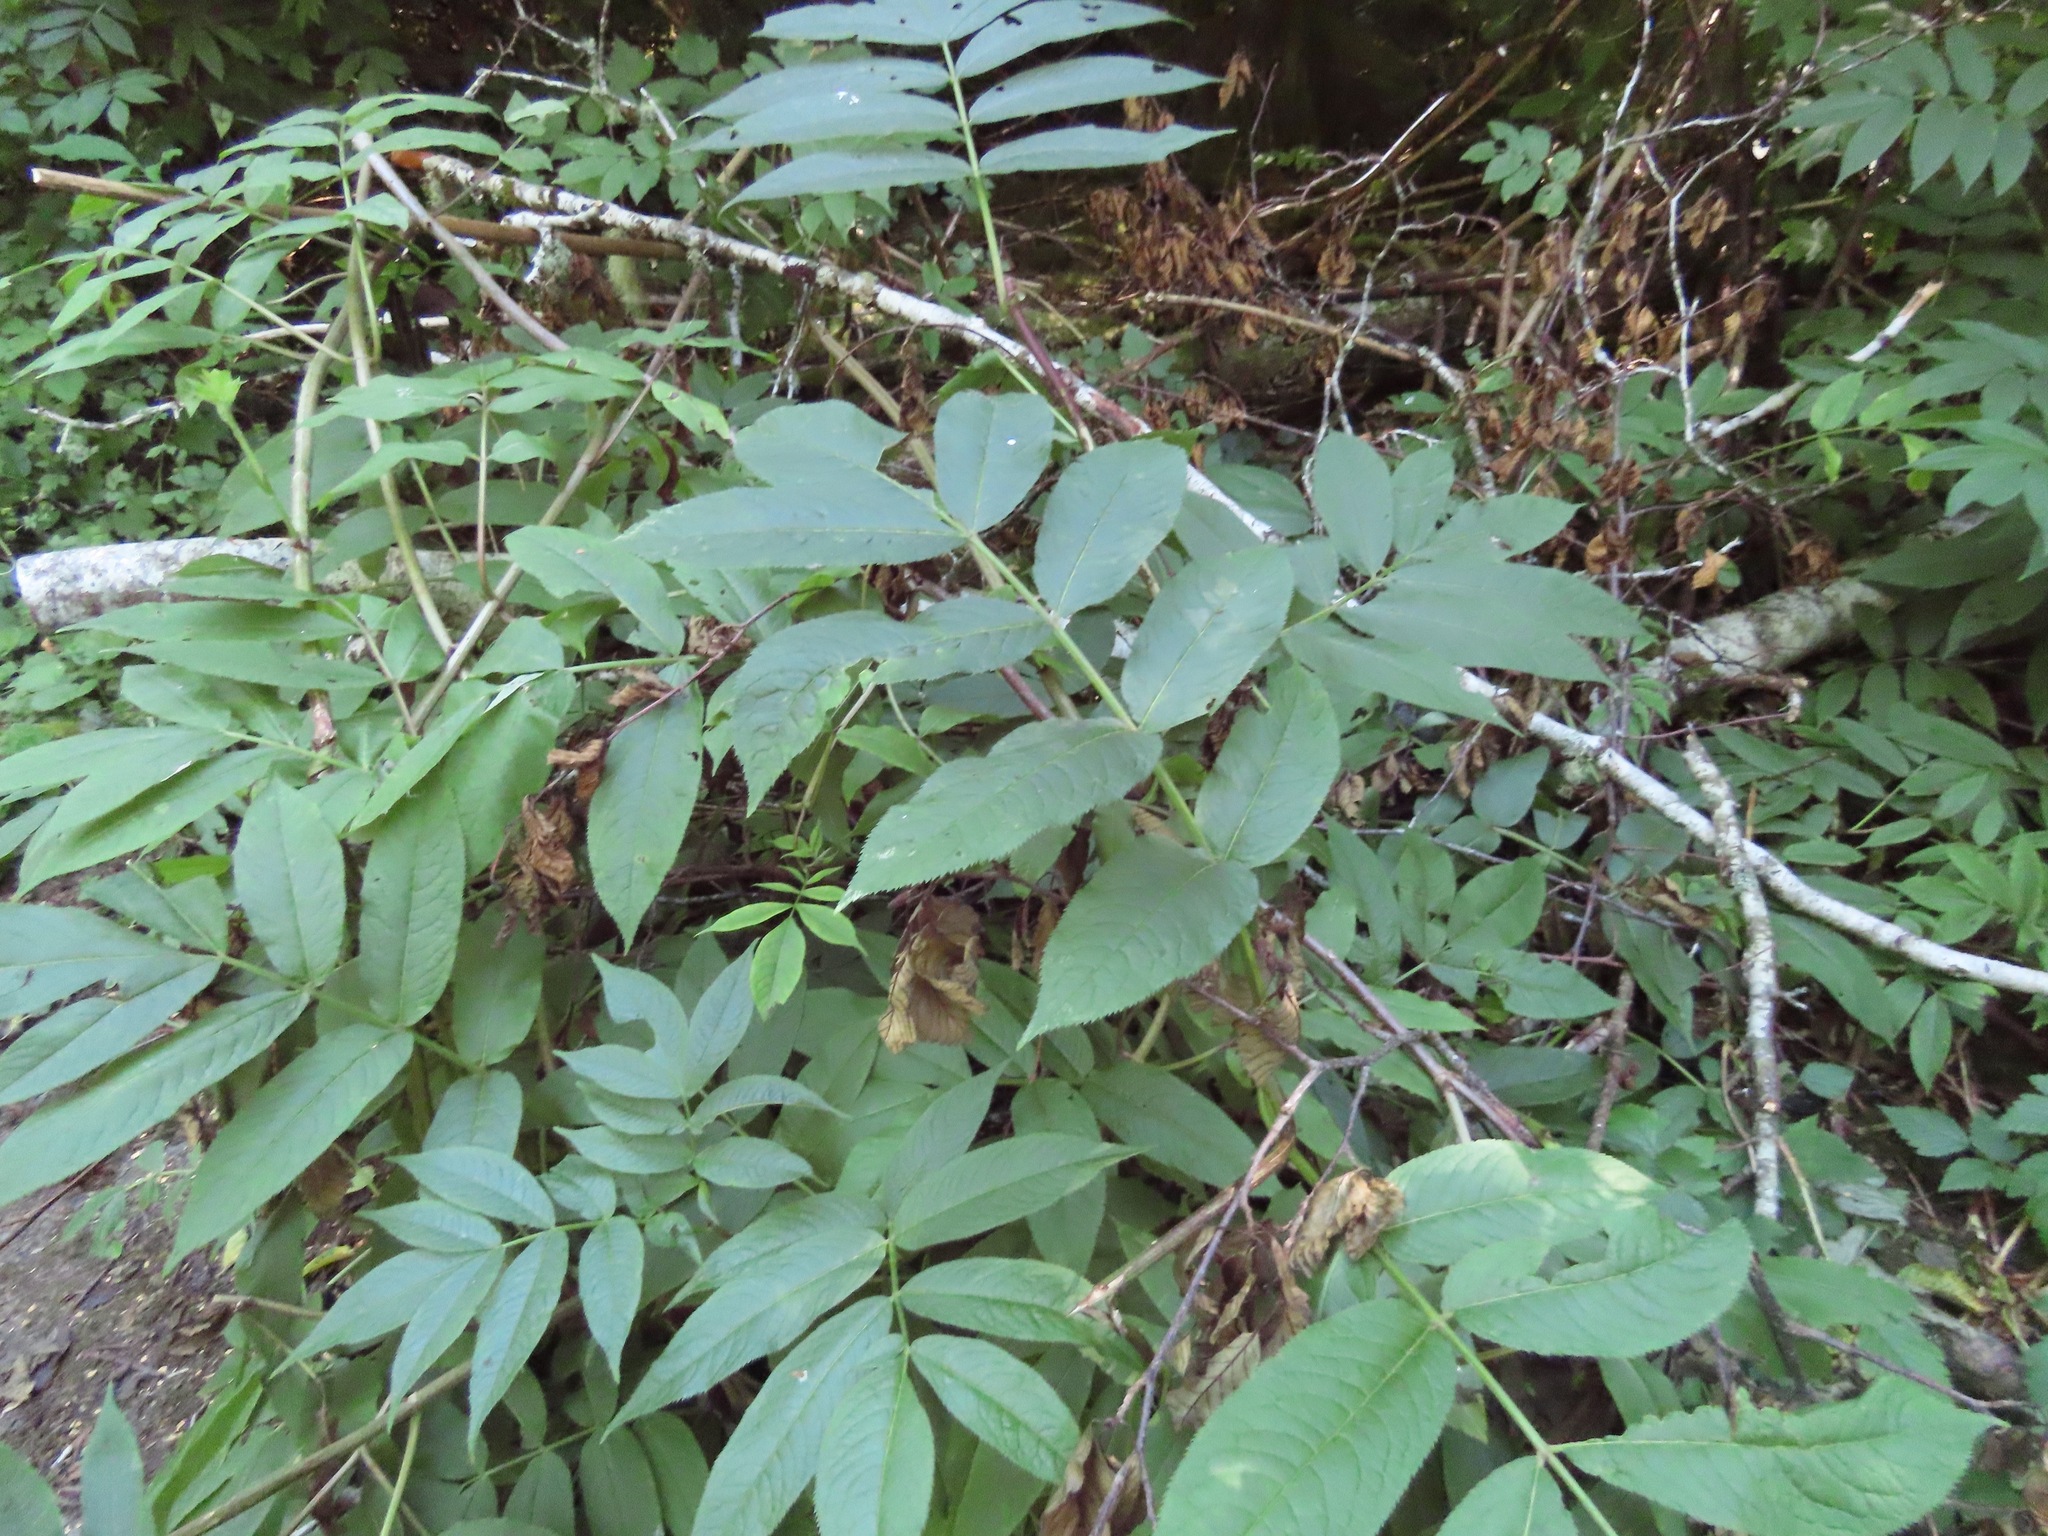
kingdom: Plantae
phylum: Tracheophyta
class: Magnoliopsida
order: Dipsacales
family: Viburnaceae
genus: Sambucus
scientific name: Sambucus racemosa
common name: Red-berried elder
